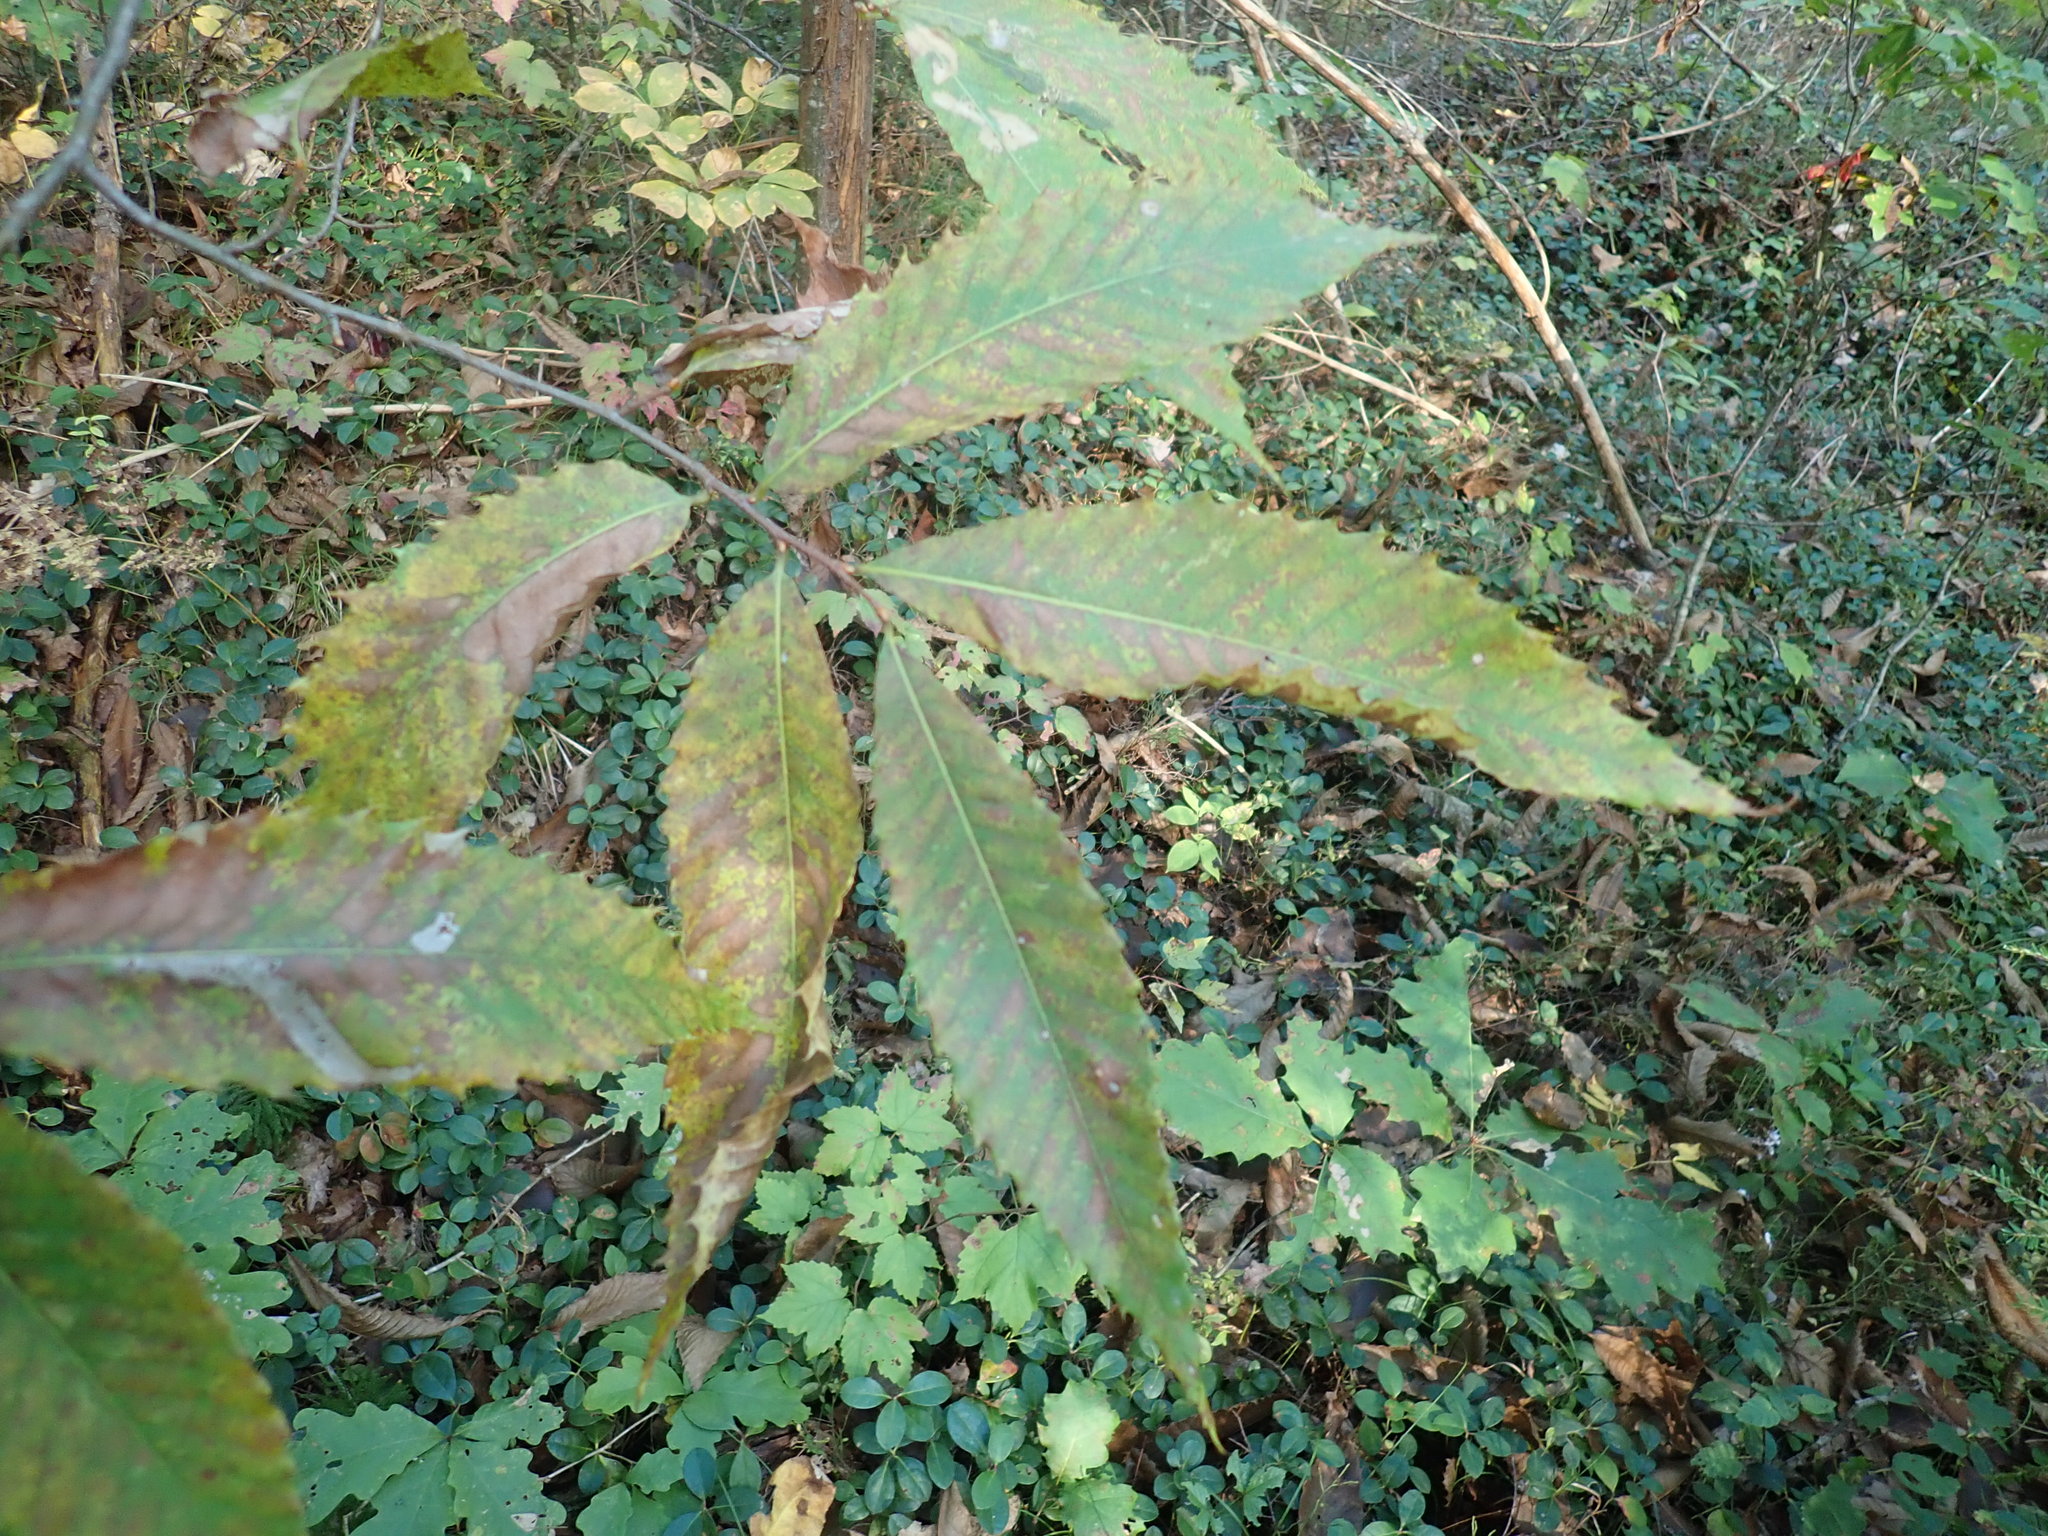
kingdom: Plantae
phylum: Tracheophyta
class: Magnoliopsida
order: Fagales
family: Fagaceae
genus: Castanea
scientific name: Castanea dentata
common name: American chestnut
